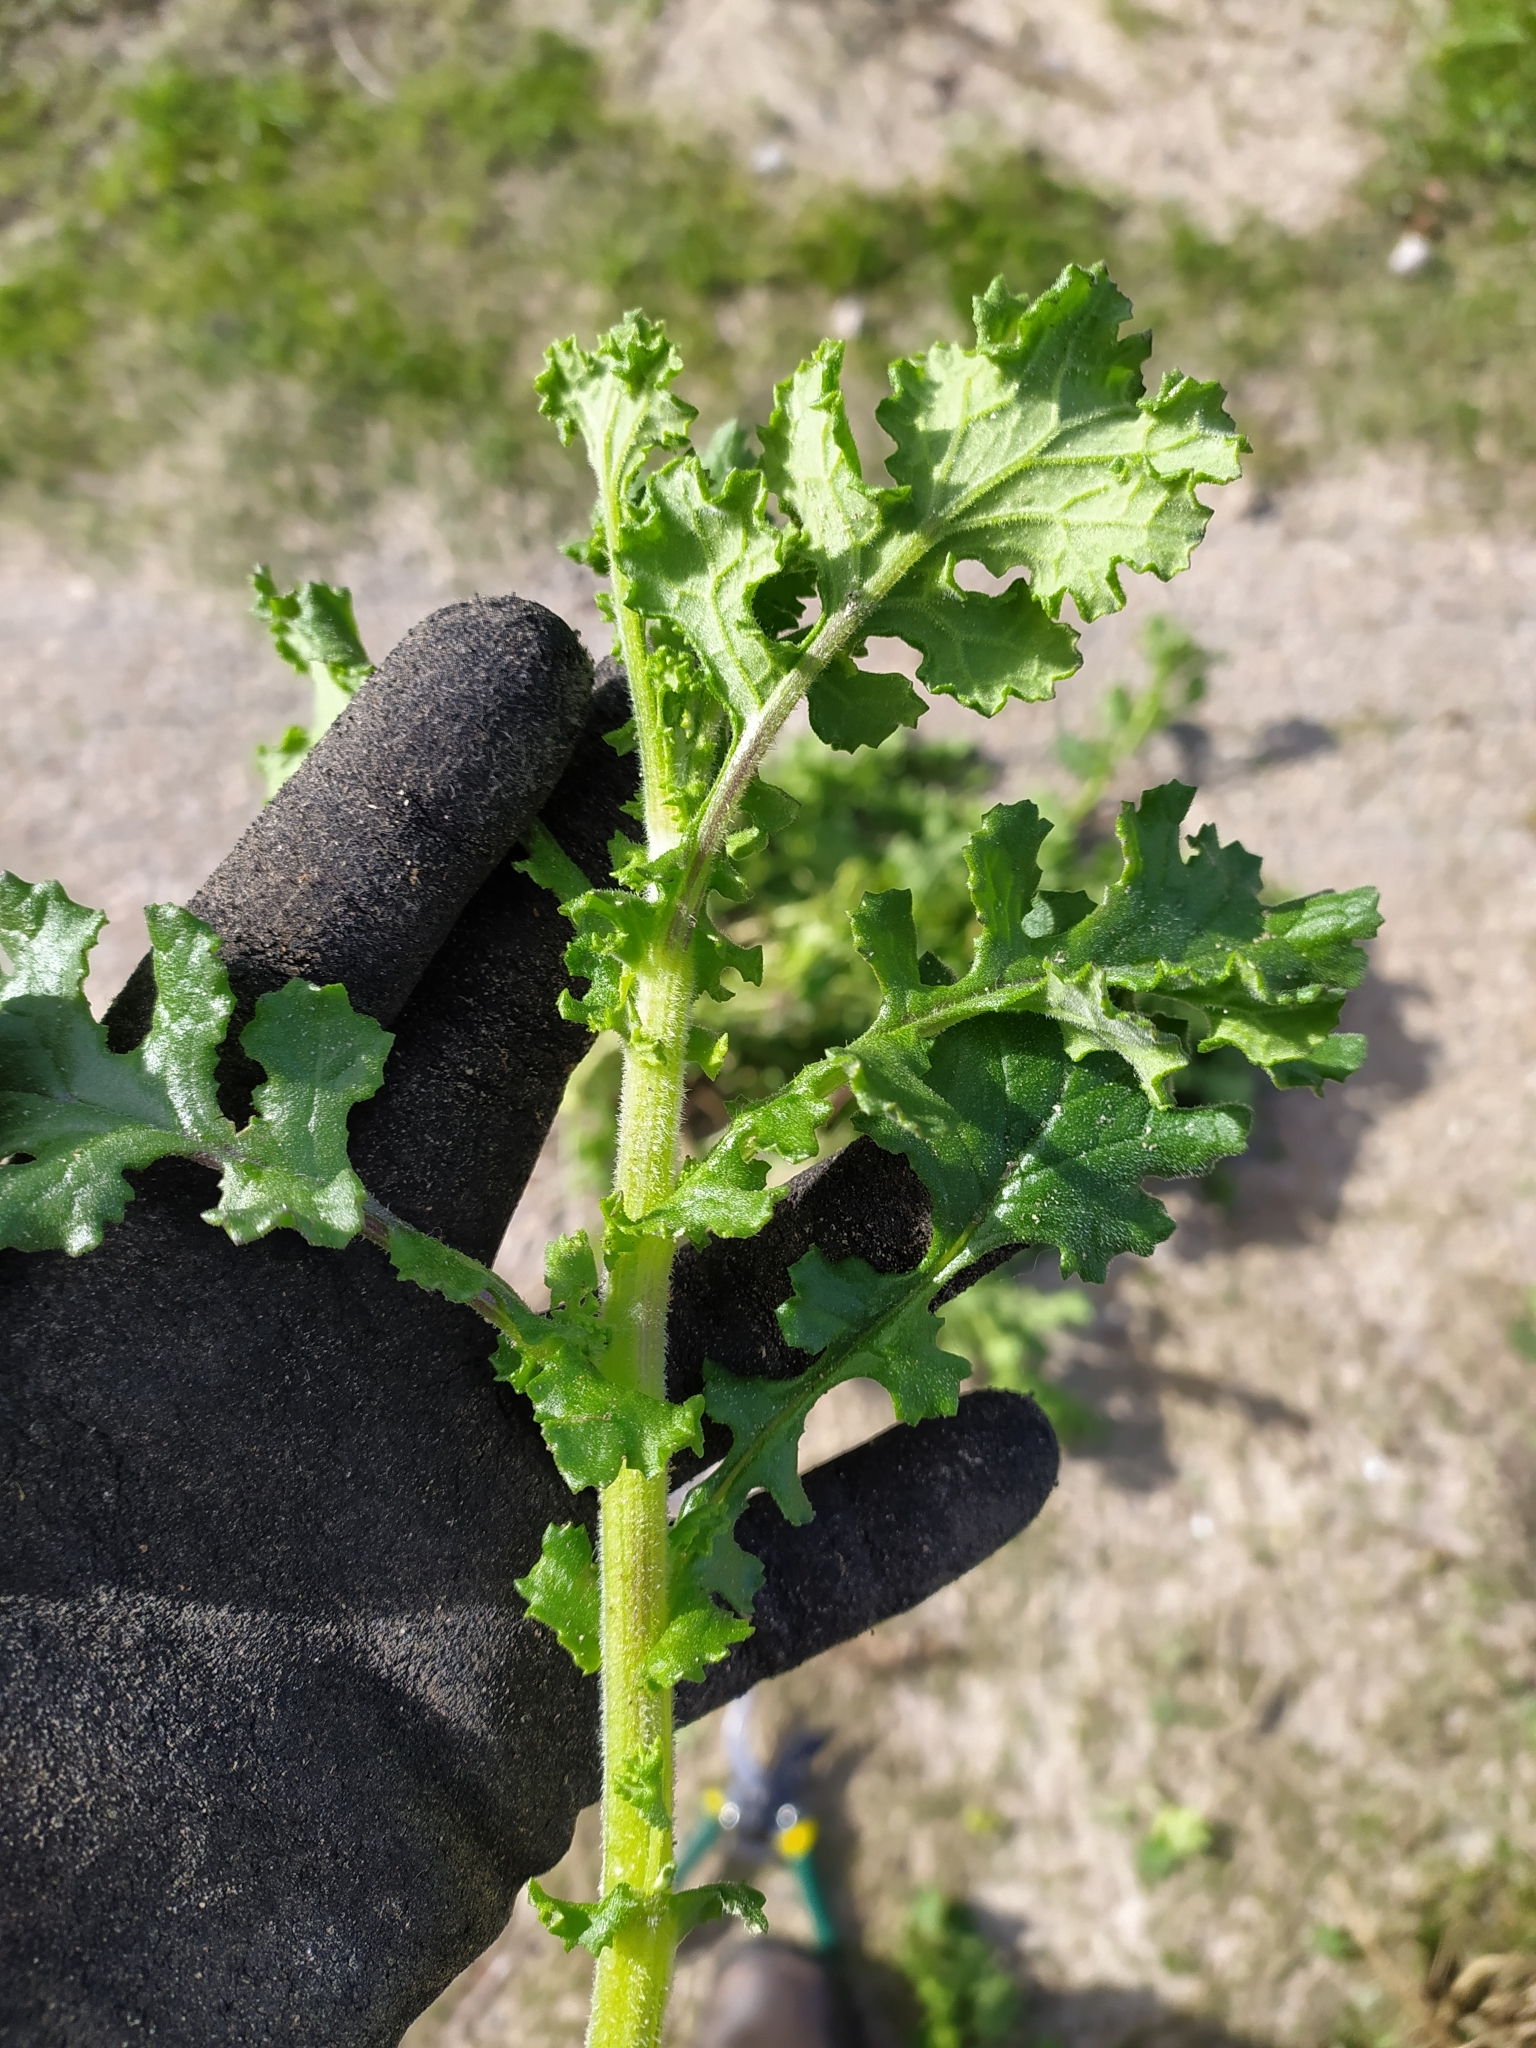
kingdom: Plantae
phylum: Tracheophyta
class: Magnoliopsida
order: Asterales
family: Asteraceae
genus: Senecio
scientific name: Senecio elegans
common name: Purple groundsel
